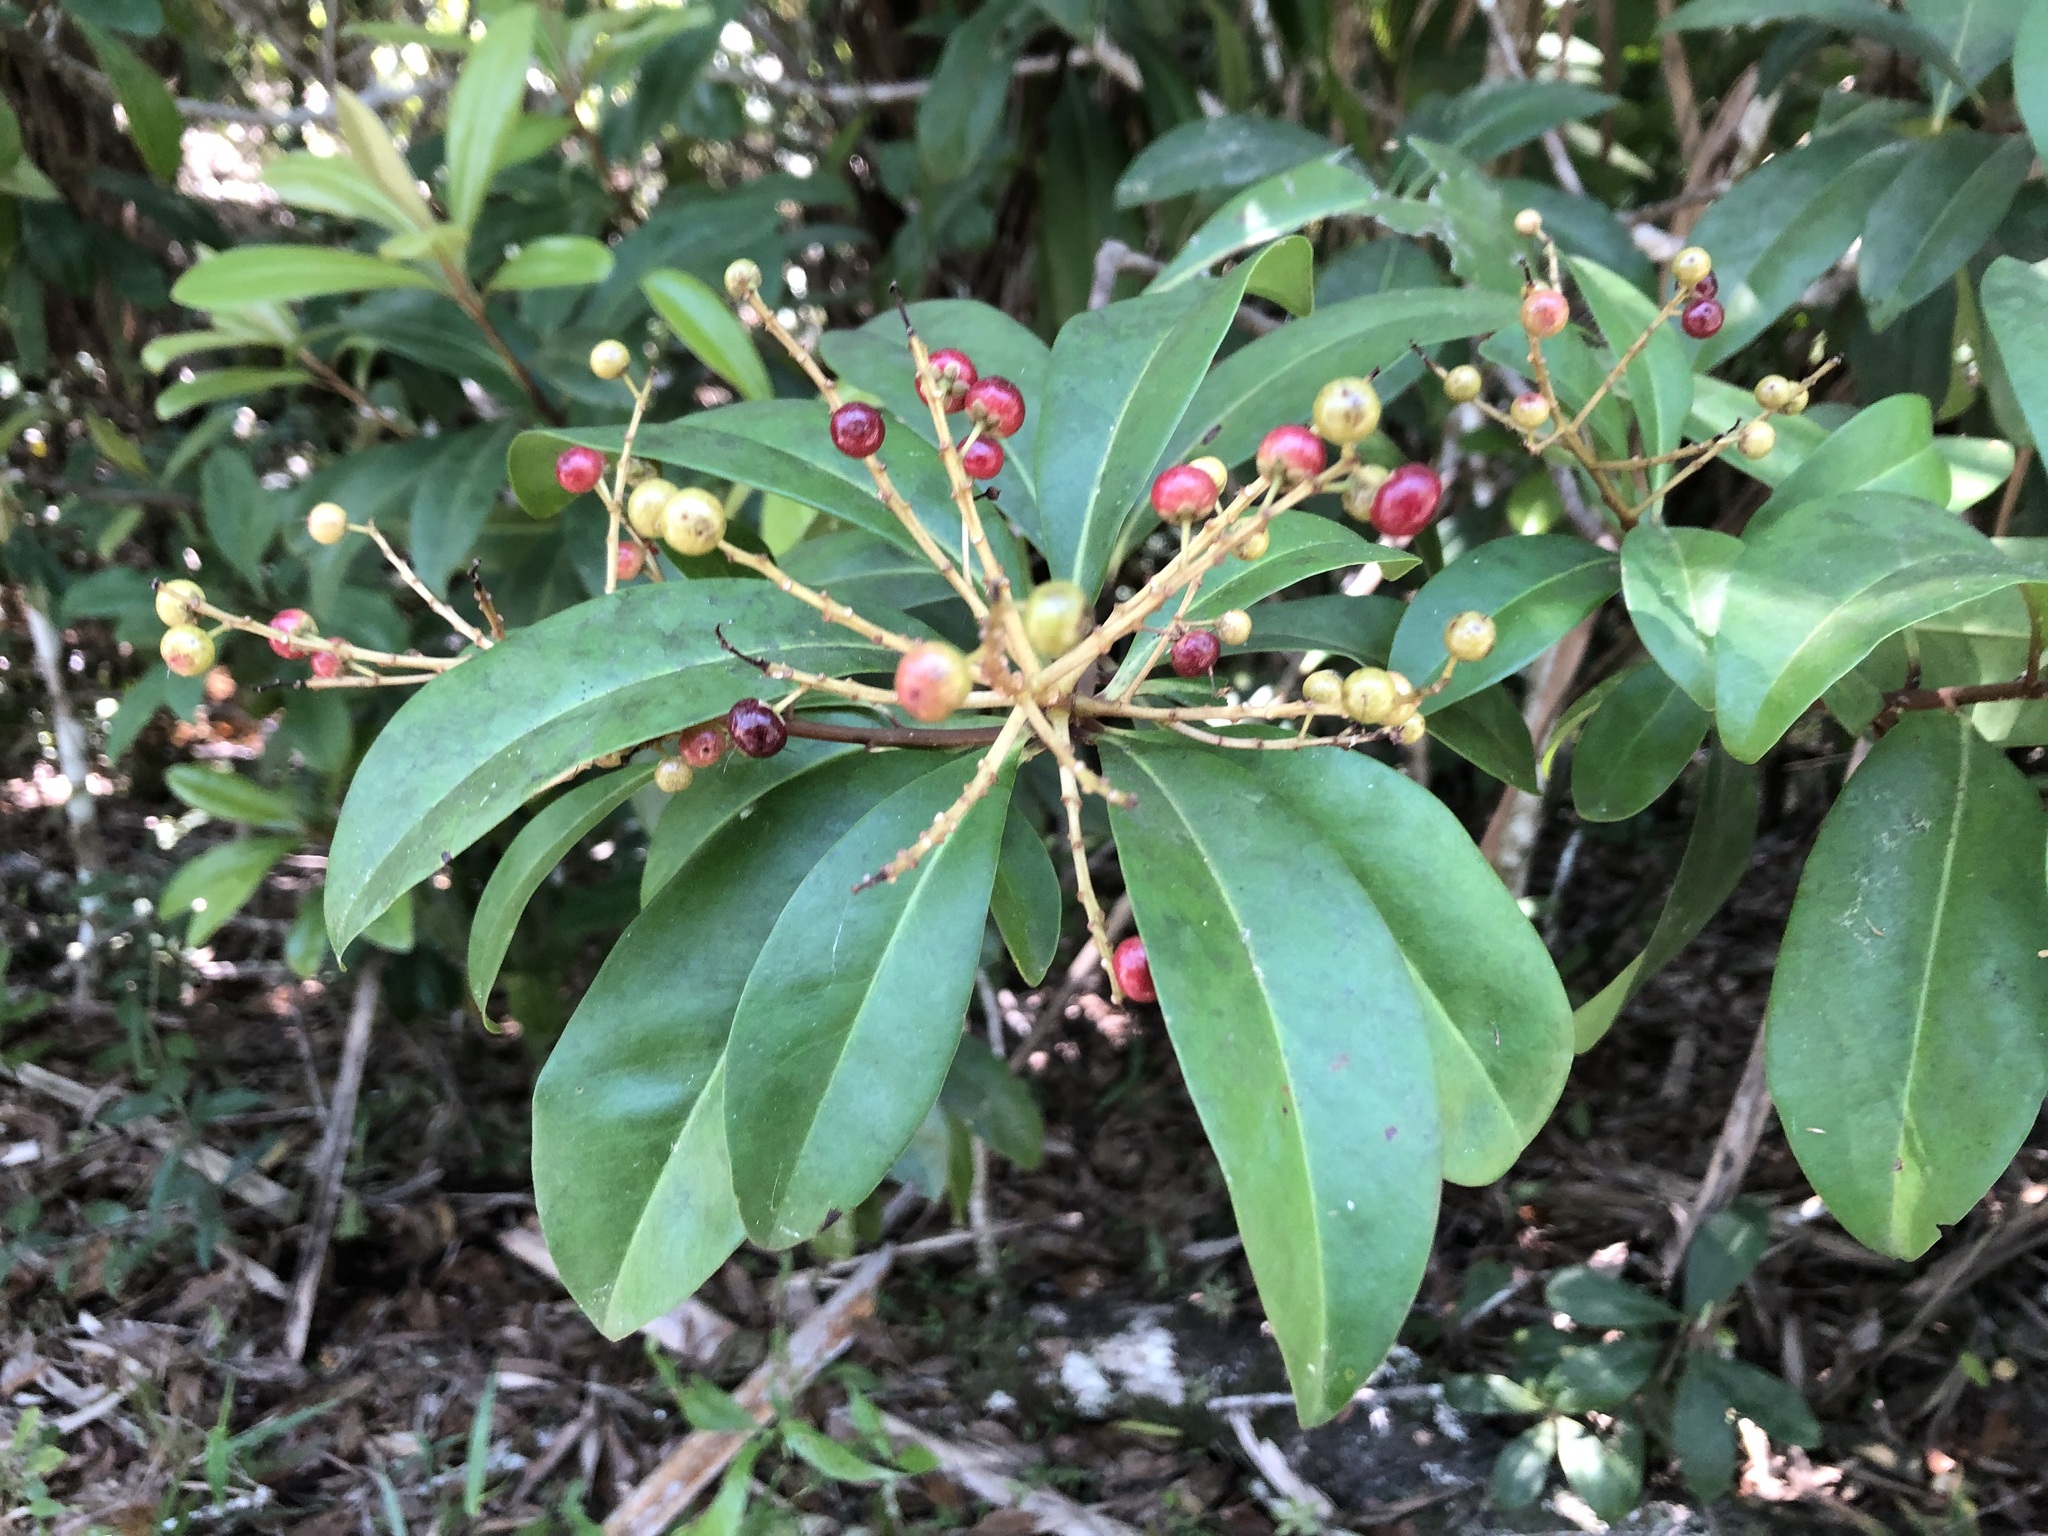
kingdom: Plantae
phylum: Tracheophyta
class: Magnoliopsida
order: Ericales
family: Primulaceae
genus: Ardisia
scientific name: Ardisia escallonioides
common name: Island marlberry
